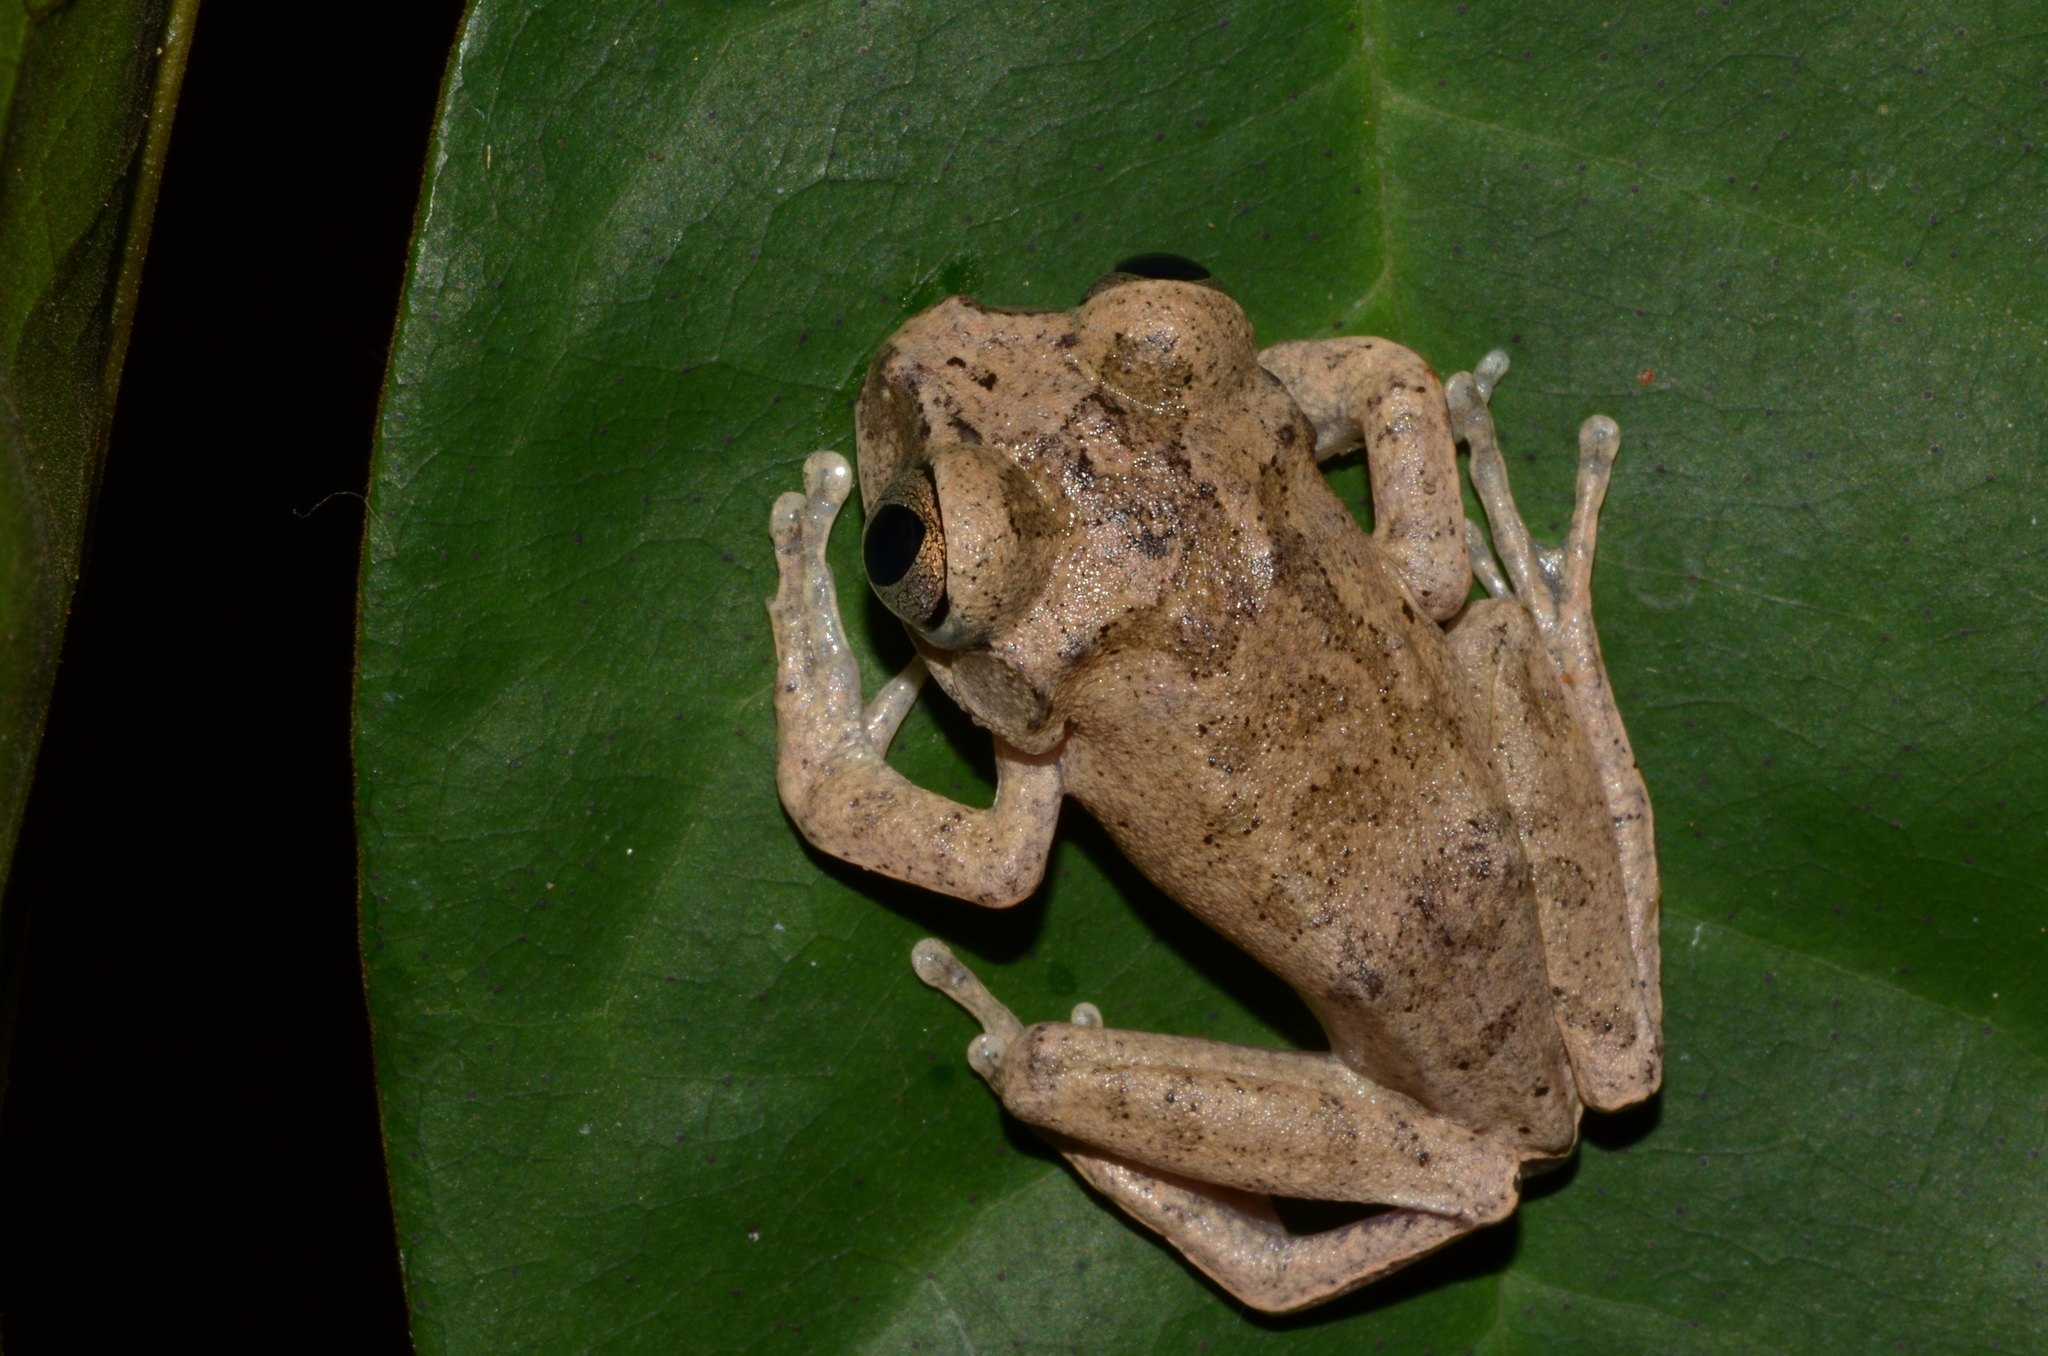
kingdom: Animalia
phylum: Chordata
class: Amphibia
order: Anura
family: Arthroleptidae
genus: Leptopelis
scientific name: Leptopelis aubryi
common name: Gaboon forest treefrog
